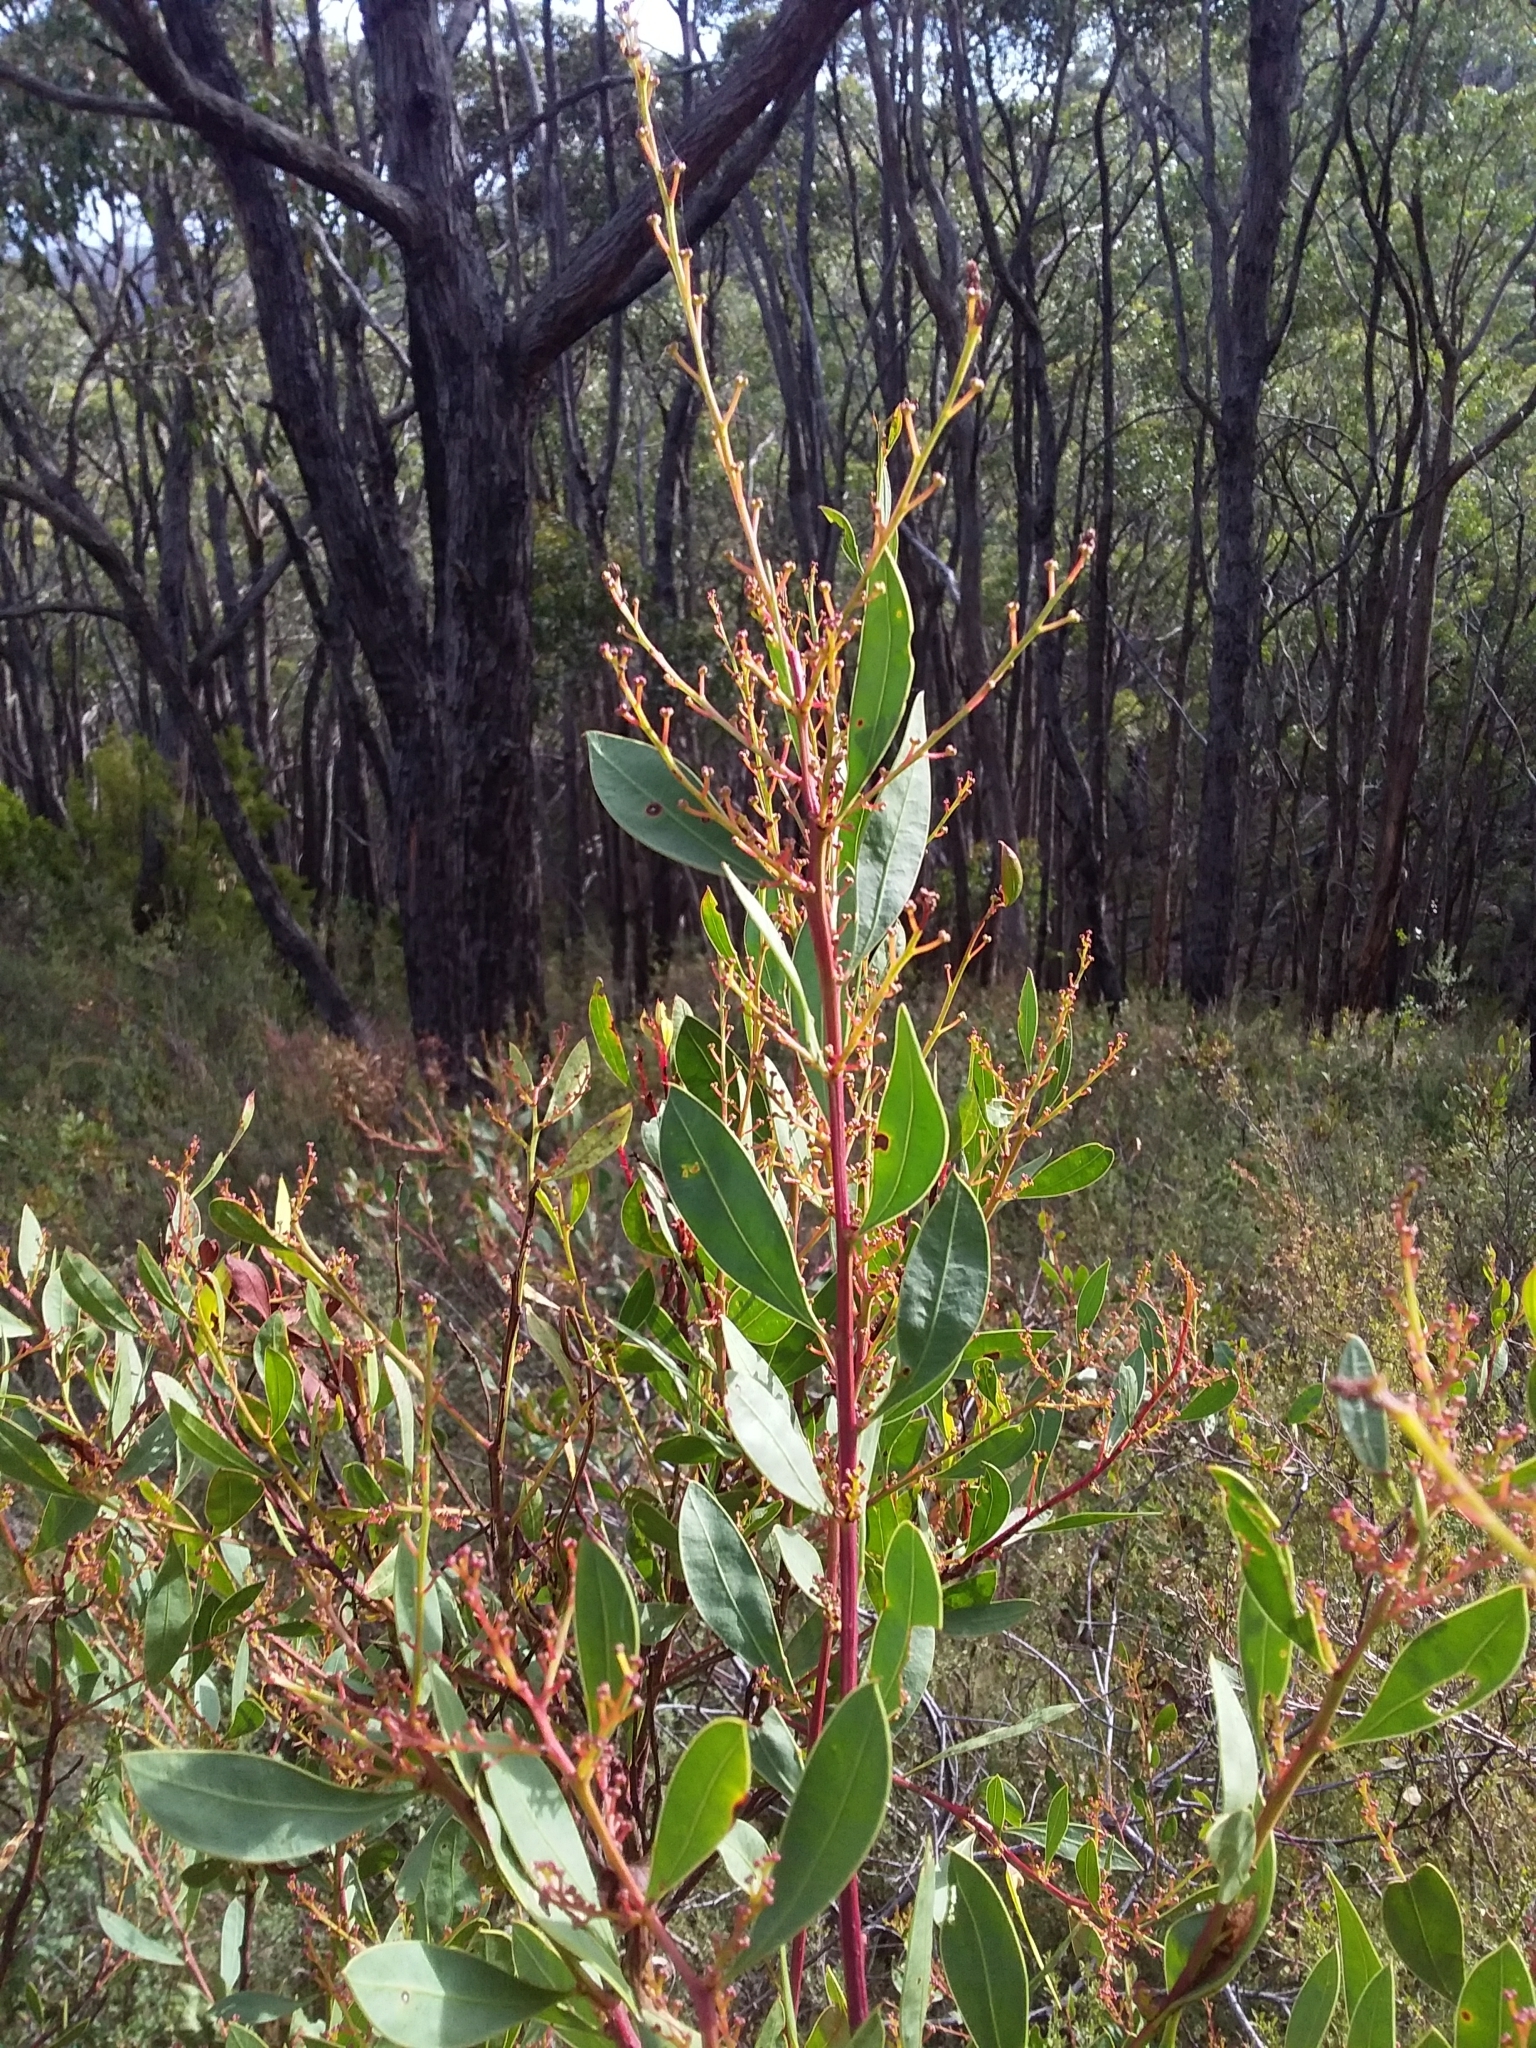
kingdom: Plantae
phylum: Tracheophyta
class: Magnoliopsida
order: Fabales
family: Fabaceae
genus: Acacia
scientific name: Acacia myrtifolia
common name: Myrtle wattle
